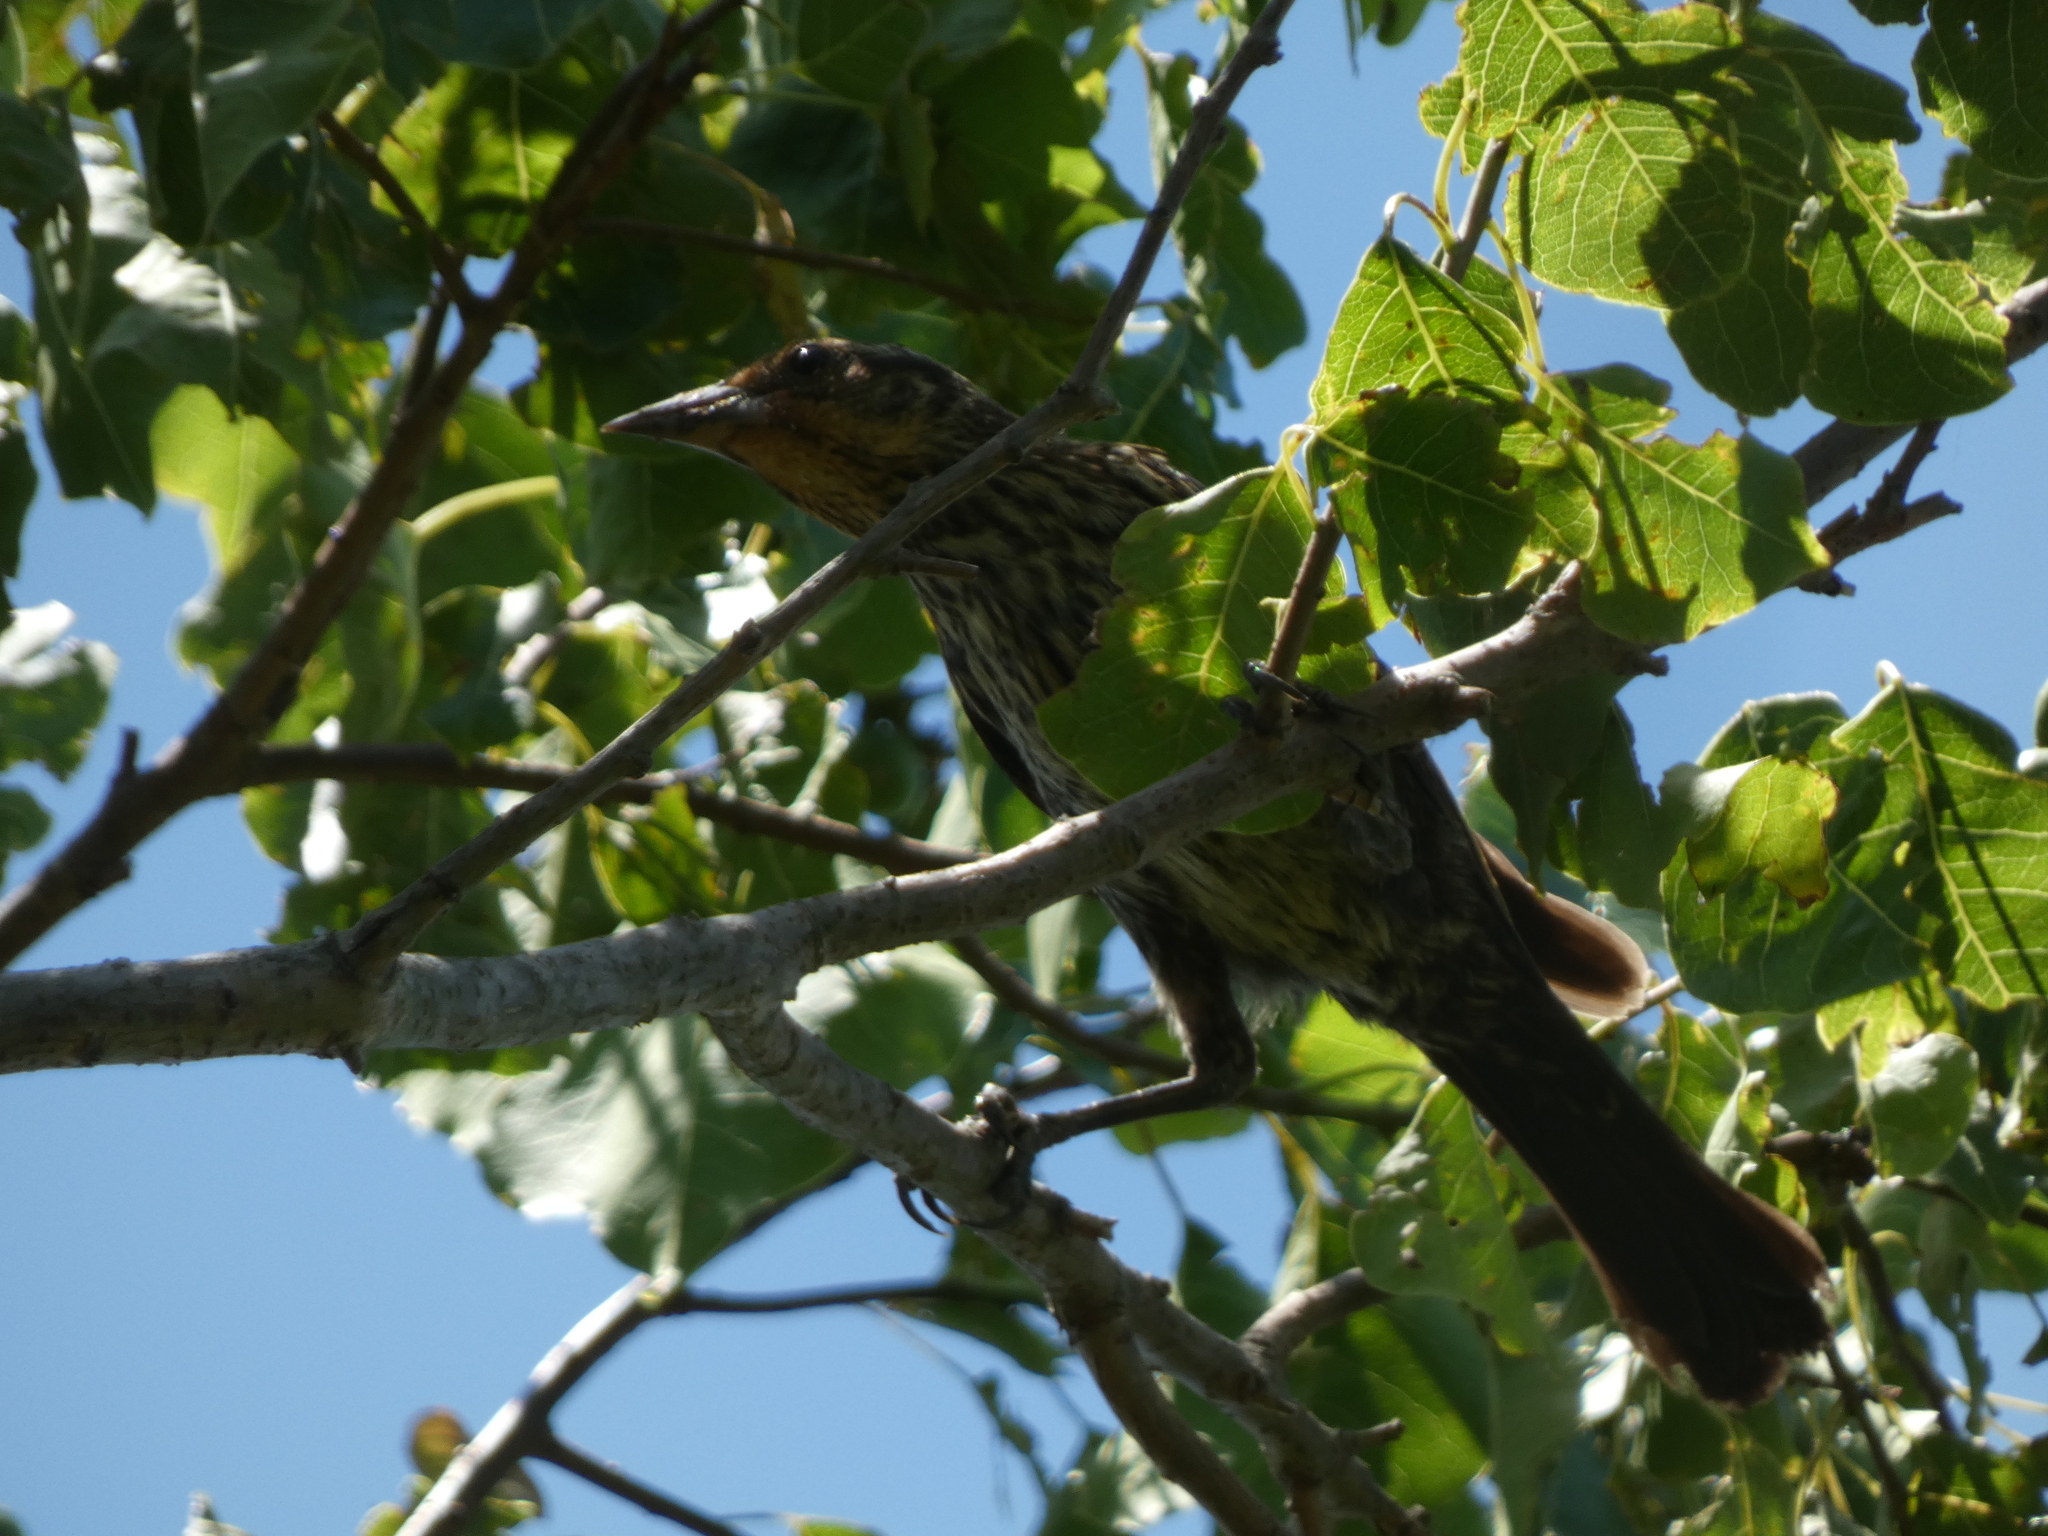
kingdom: Animalia
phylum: Chordata
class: Aves
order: Passeriformes
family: Icteridae
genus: Agelaius
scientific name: Agelaius phoeniceus
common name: Red-winged blackbird
